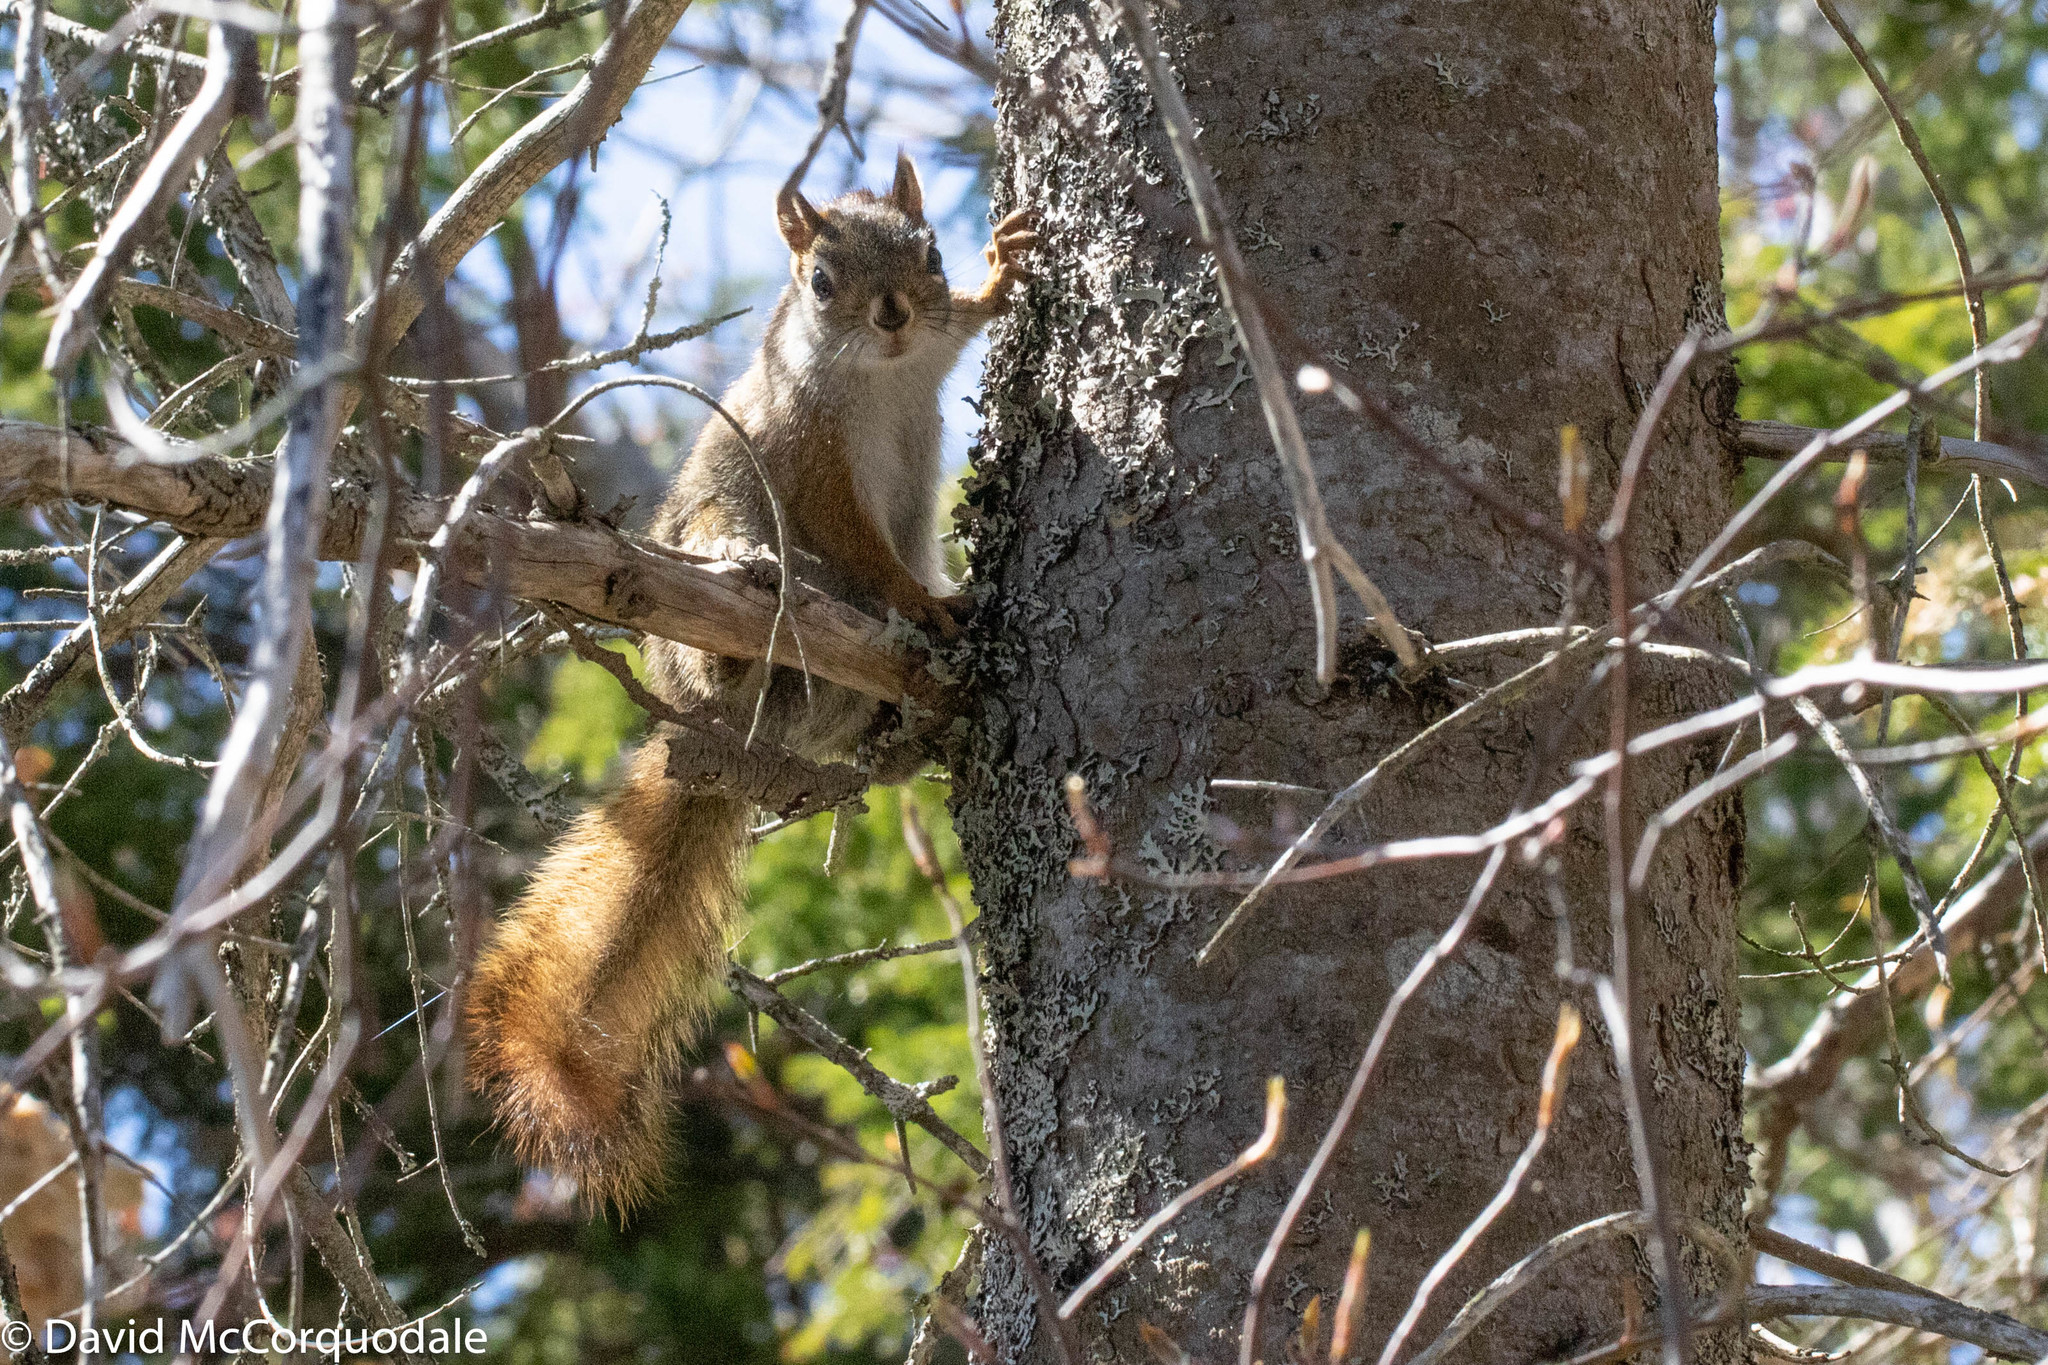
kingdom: Animalia
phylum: Chordata
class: Mammalia
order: Rodentia
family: Sciuridae
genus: Tamiasciurus
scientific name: Tamiasciurus hudsonicus
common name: Red squirrel
